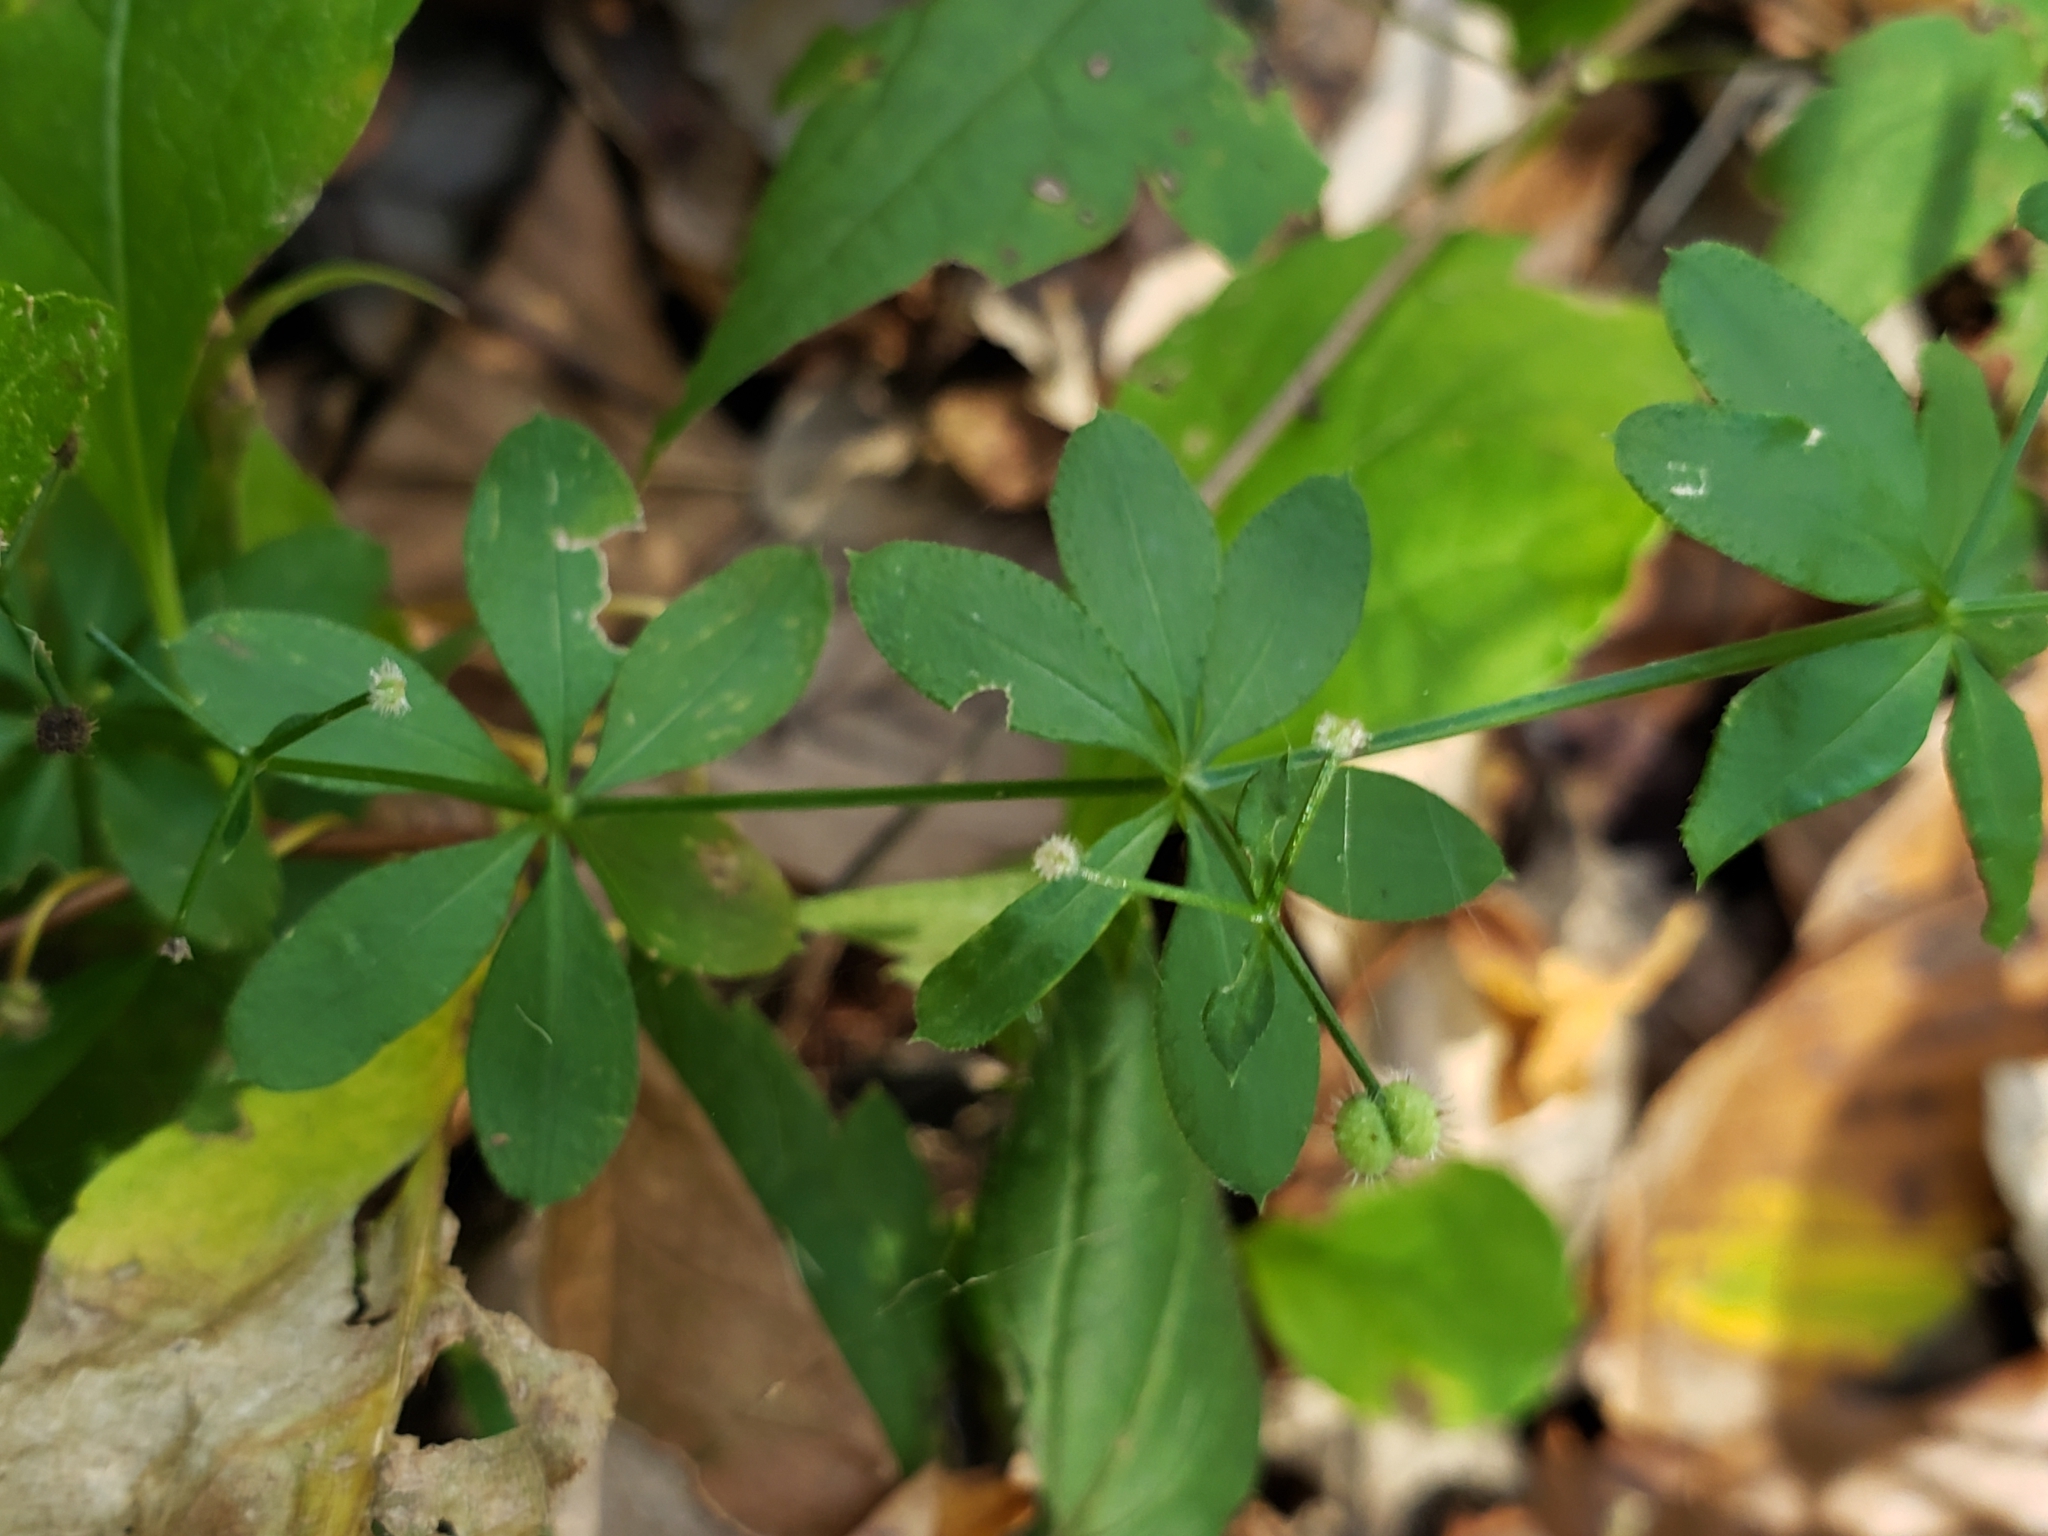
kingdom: Plantae
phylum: Tracheophyta
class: Magnoliopsida
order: Gentianales
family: Rubiaceae
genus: Galium
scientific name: Galium triflorum
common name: Fragrant bedstraw
